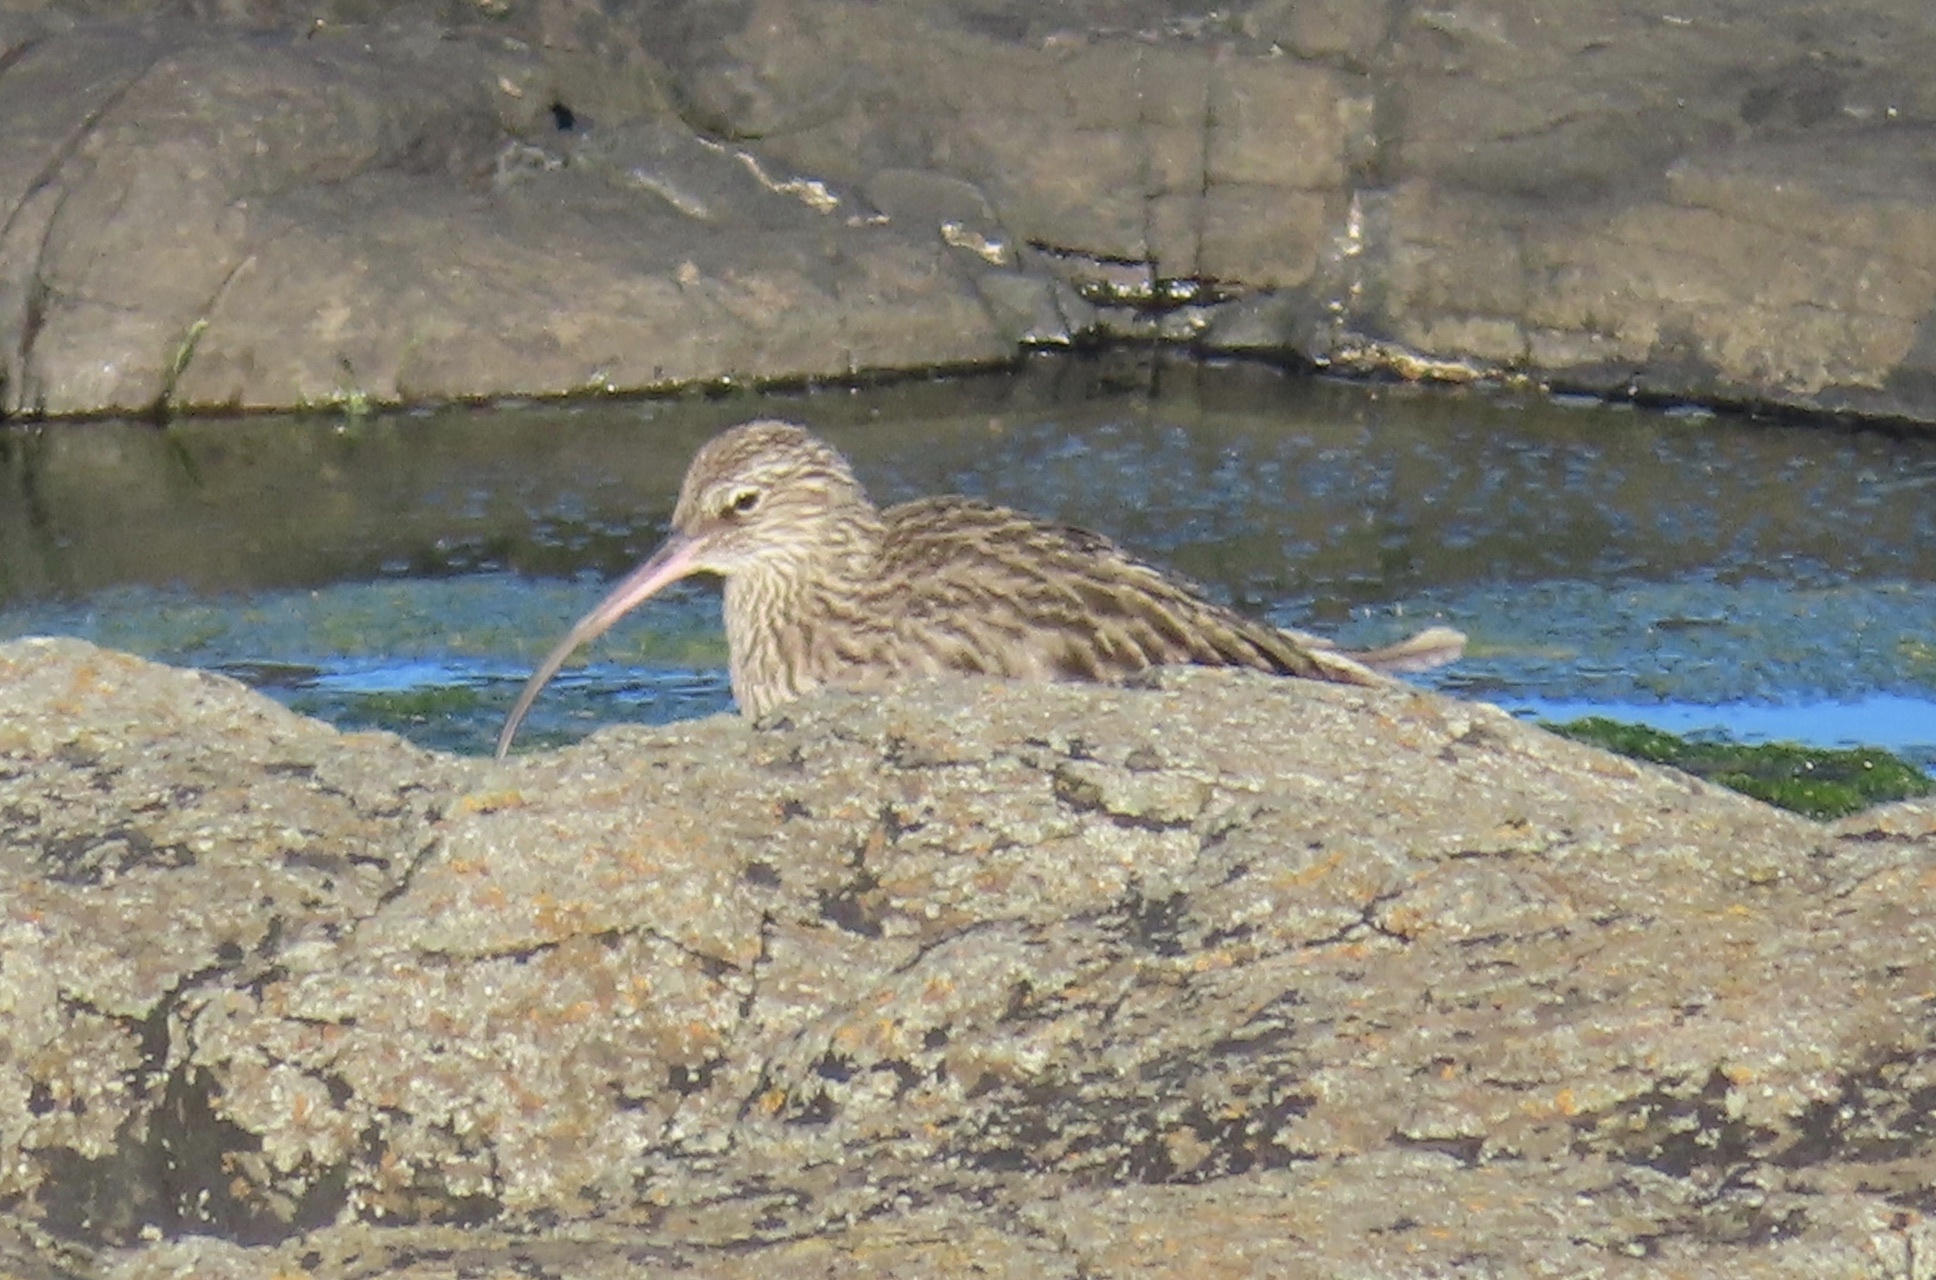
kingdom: Animalia
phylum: Chordata
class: Aves
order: Charadriiformes
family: Scolopacidae
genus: Numenius
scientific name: Numenius arquata
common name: Eurasian curlew
